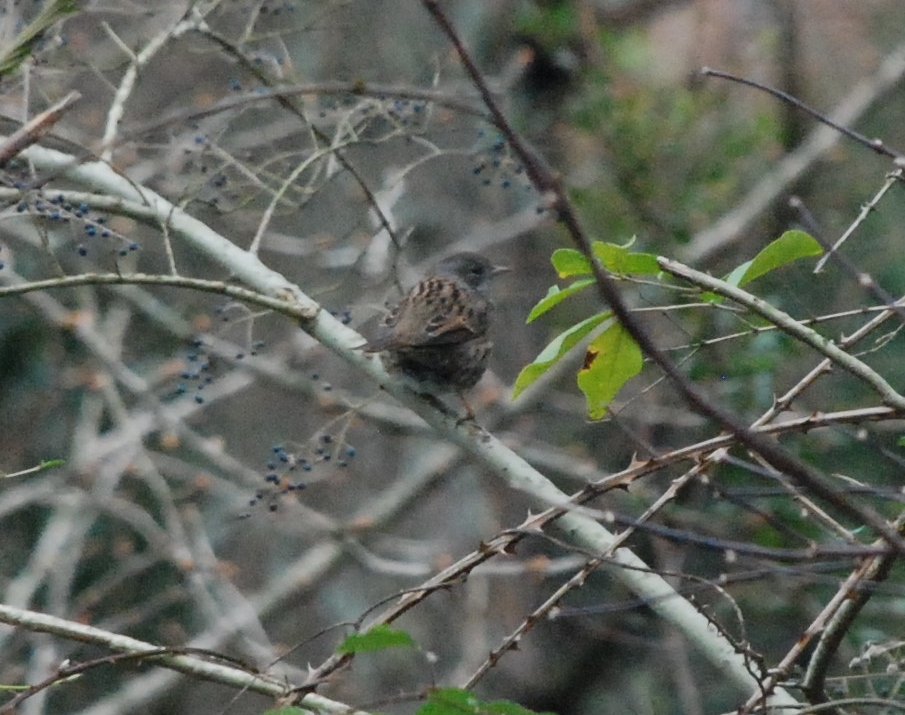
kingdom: Animalia
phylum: Chordata
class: Aves
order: Passeriformes
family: Prunellidae
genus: Prunella
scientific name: Prunella modularis
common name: Dunnock
